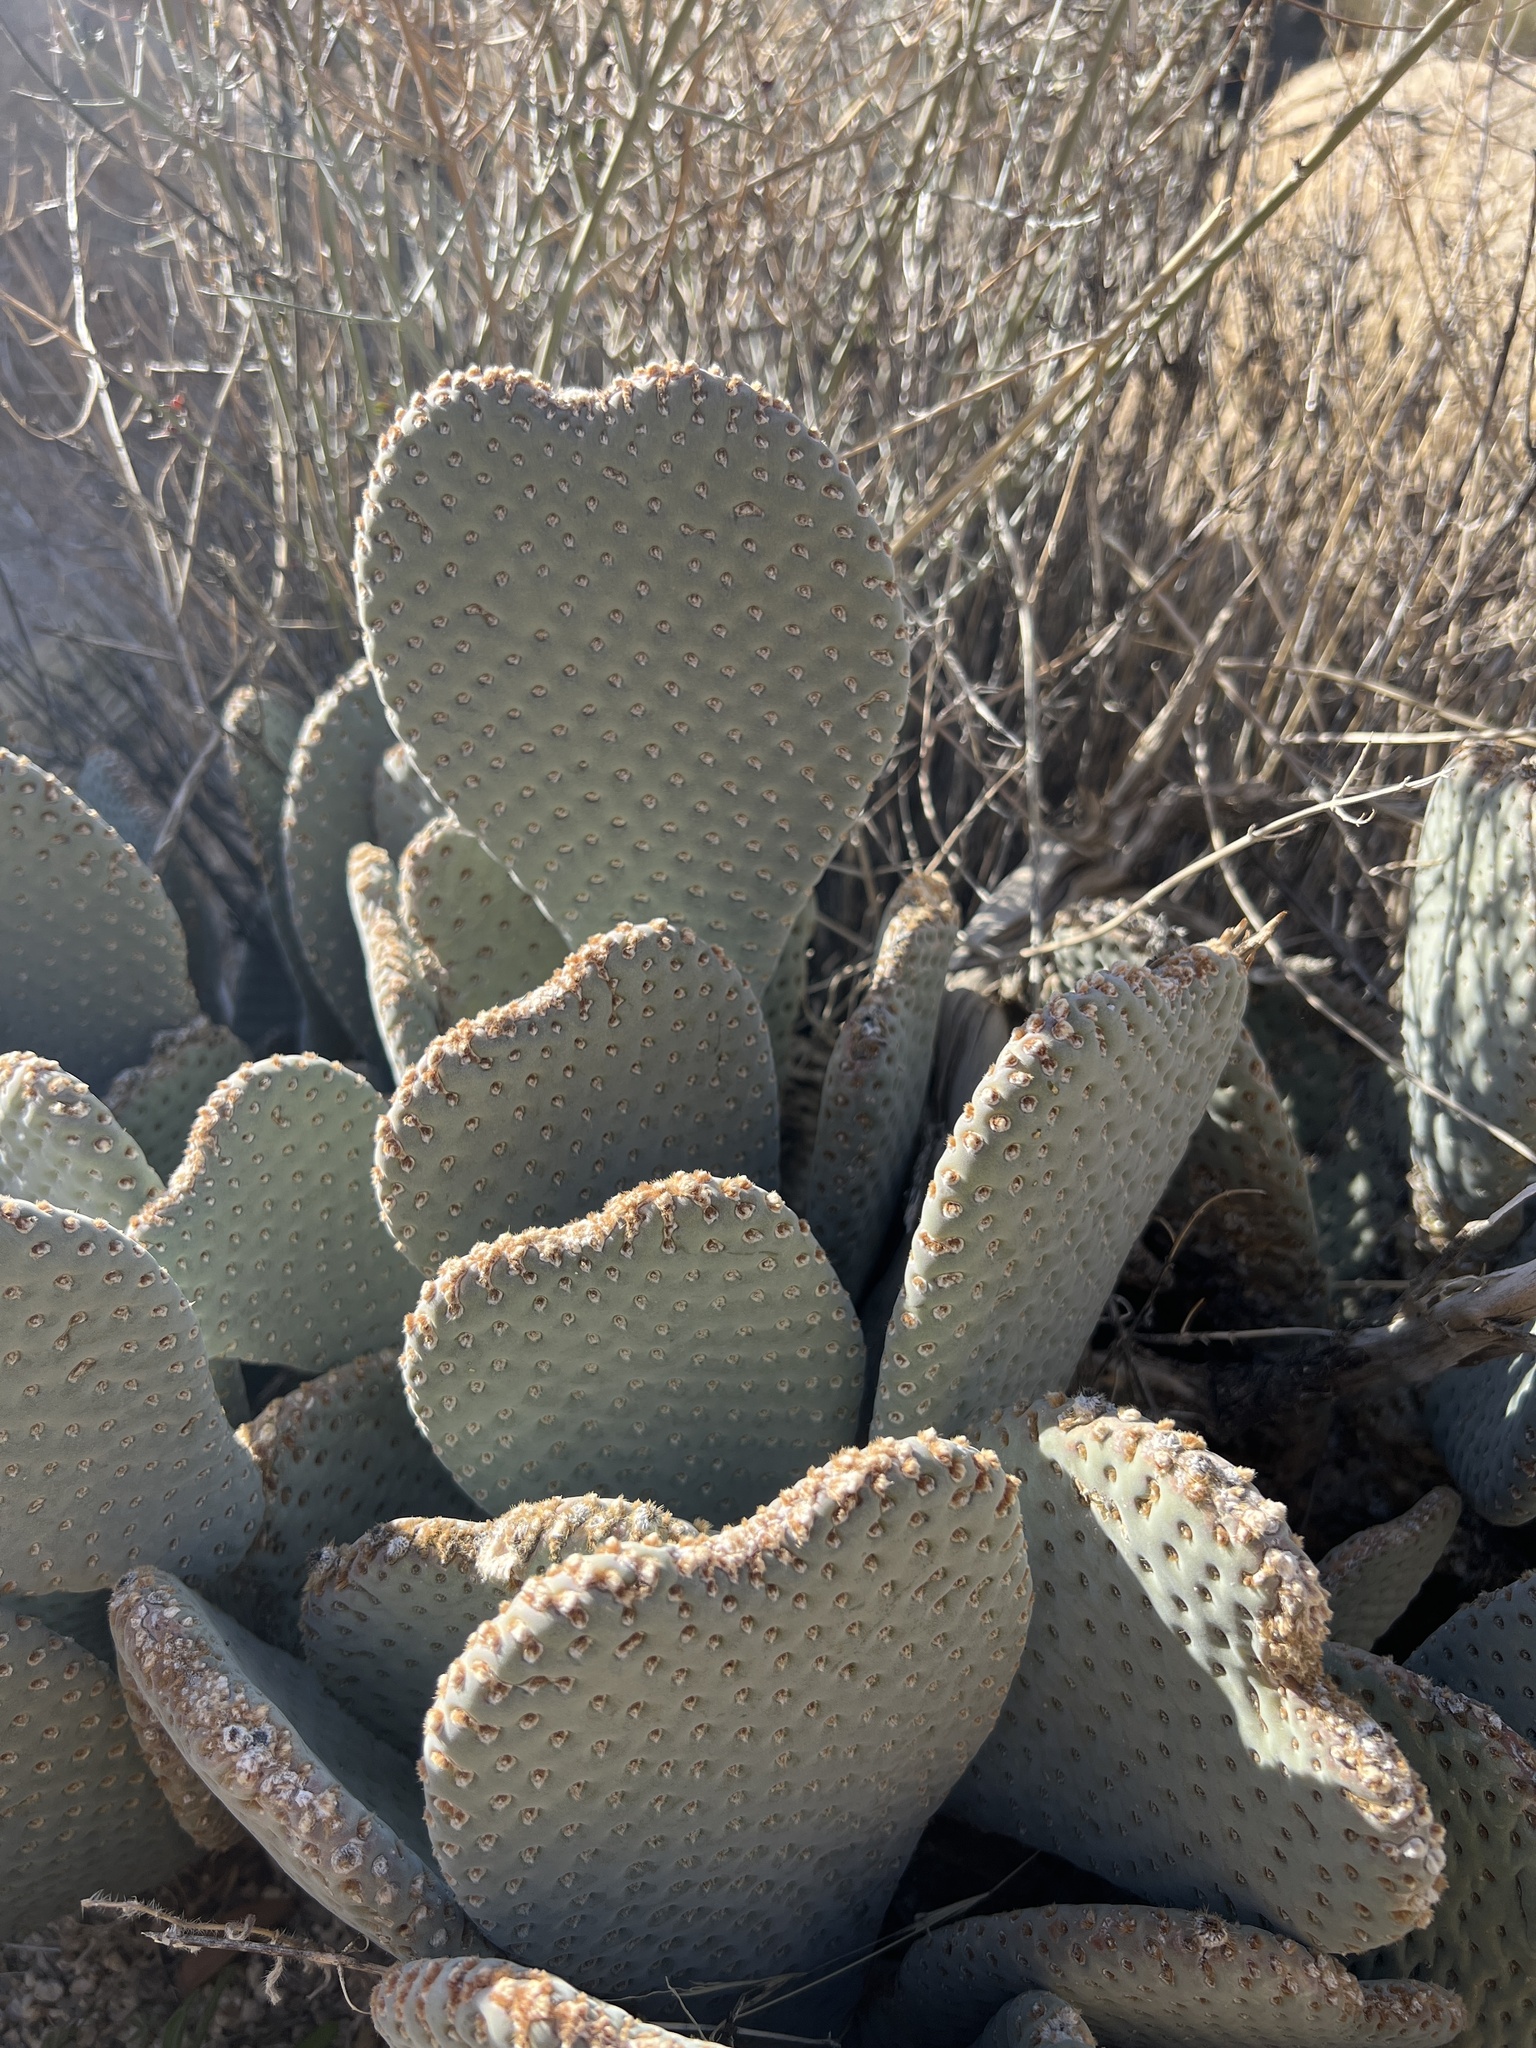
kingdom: Plantae
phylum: Tracheophyta
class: Magnoliopsida
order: Caryophyllales
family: Cactaceae
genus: Opuntia
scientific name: Opuntia basilaris
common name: Beavertail prickly-pear
